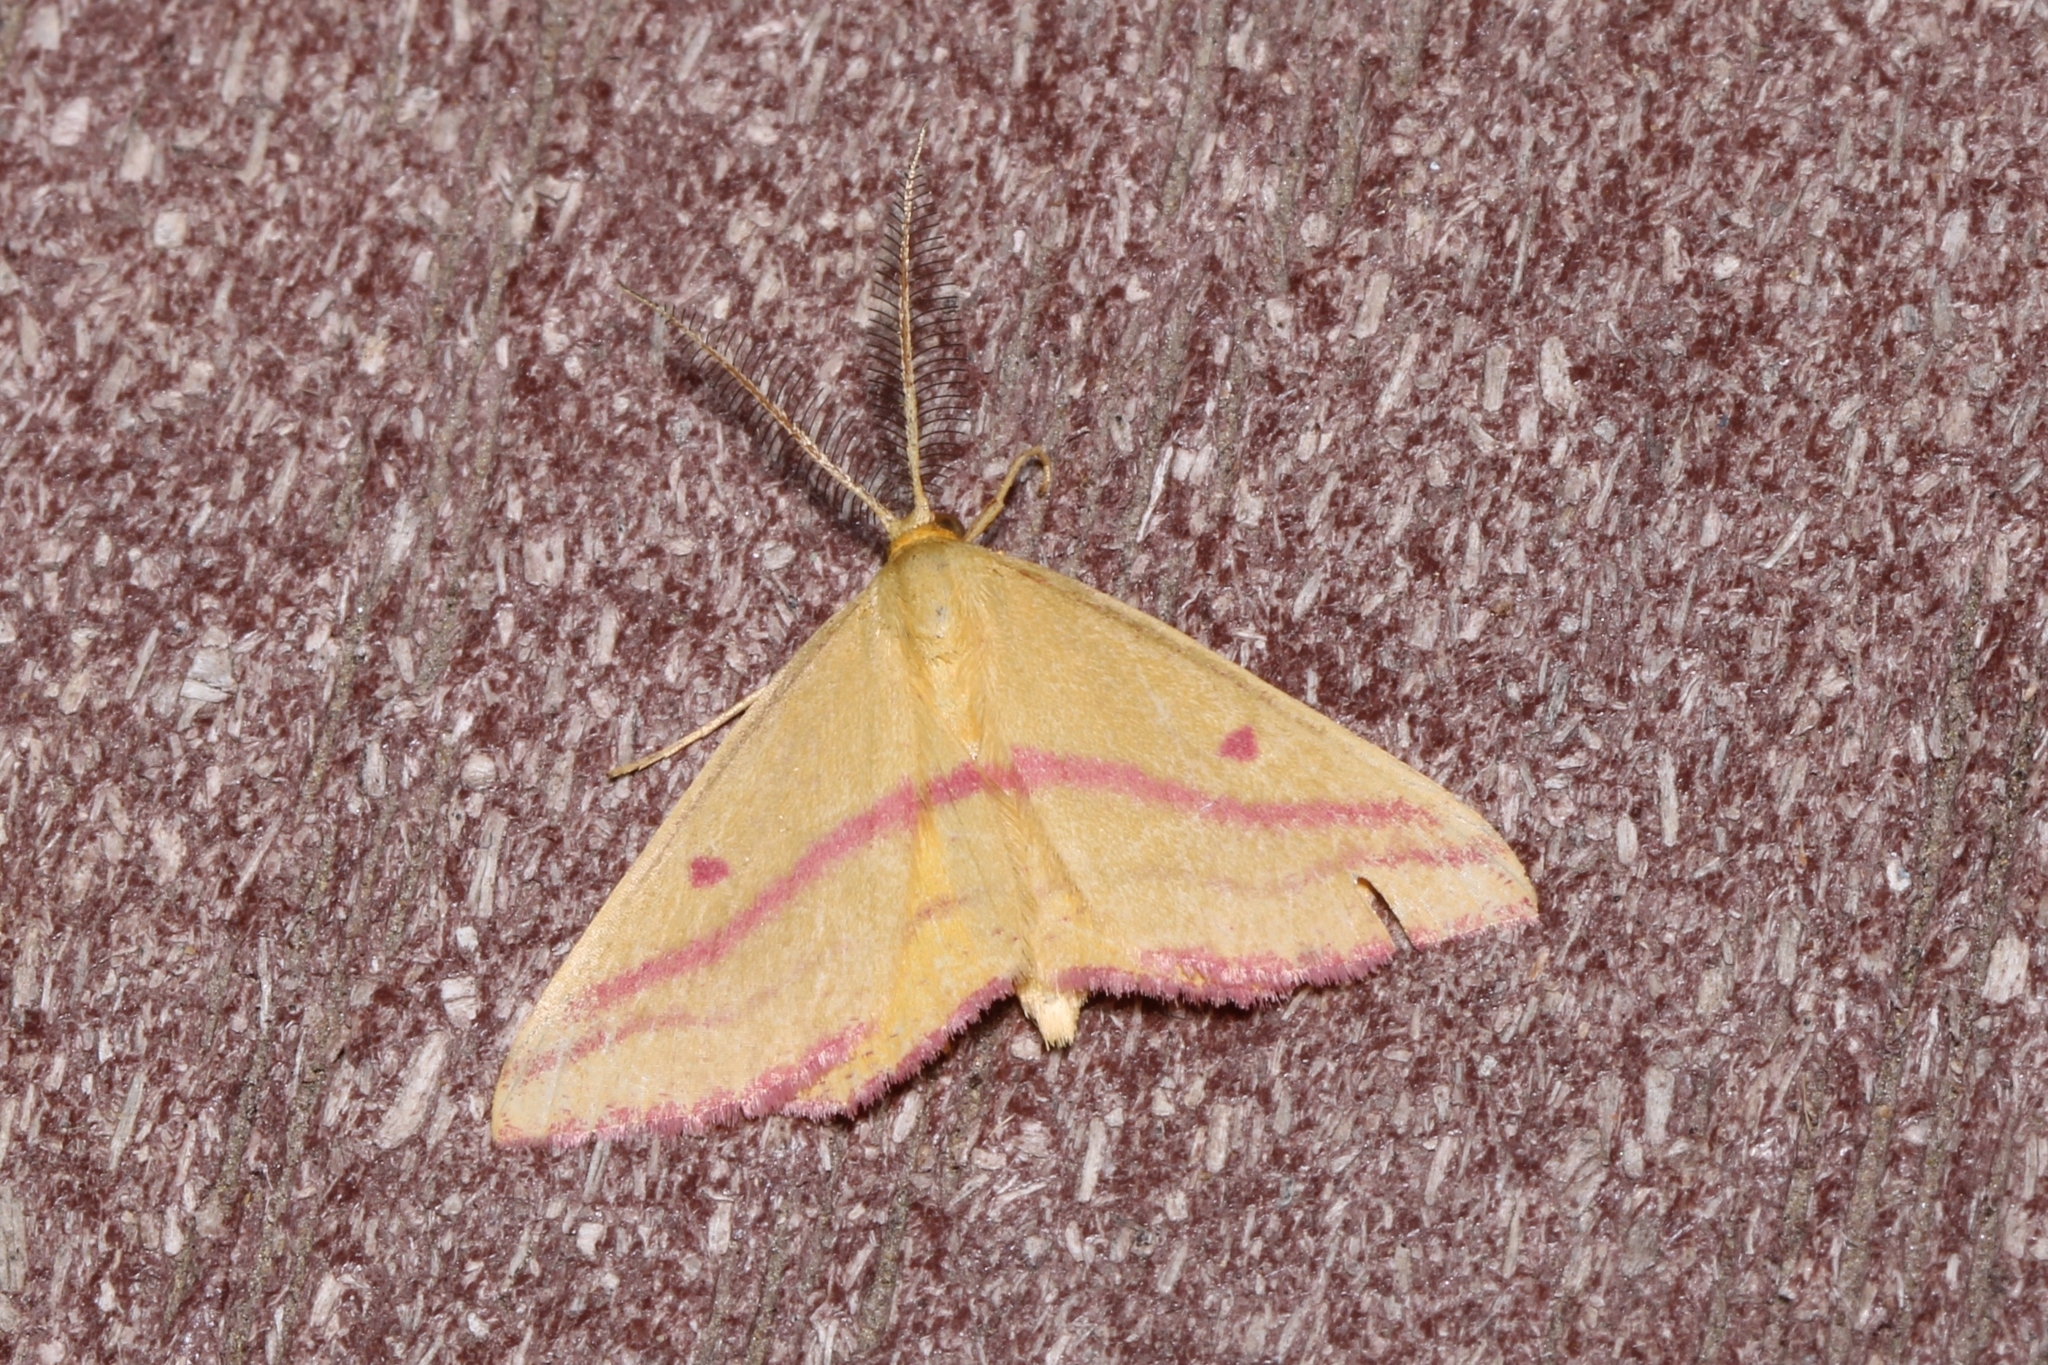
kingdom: Animalia
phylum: Arthropoda
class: Insecta
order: Lepidoptera
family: Geometridae
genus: Haematopis
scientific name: Haematopis grataria
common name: Chickweed geometer
